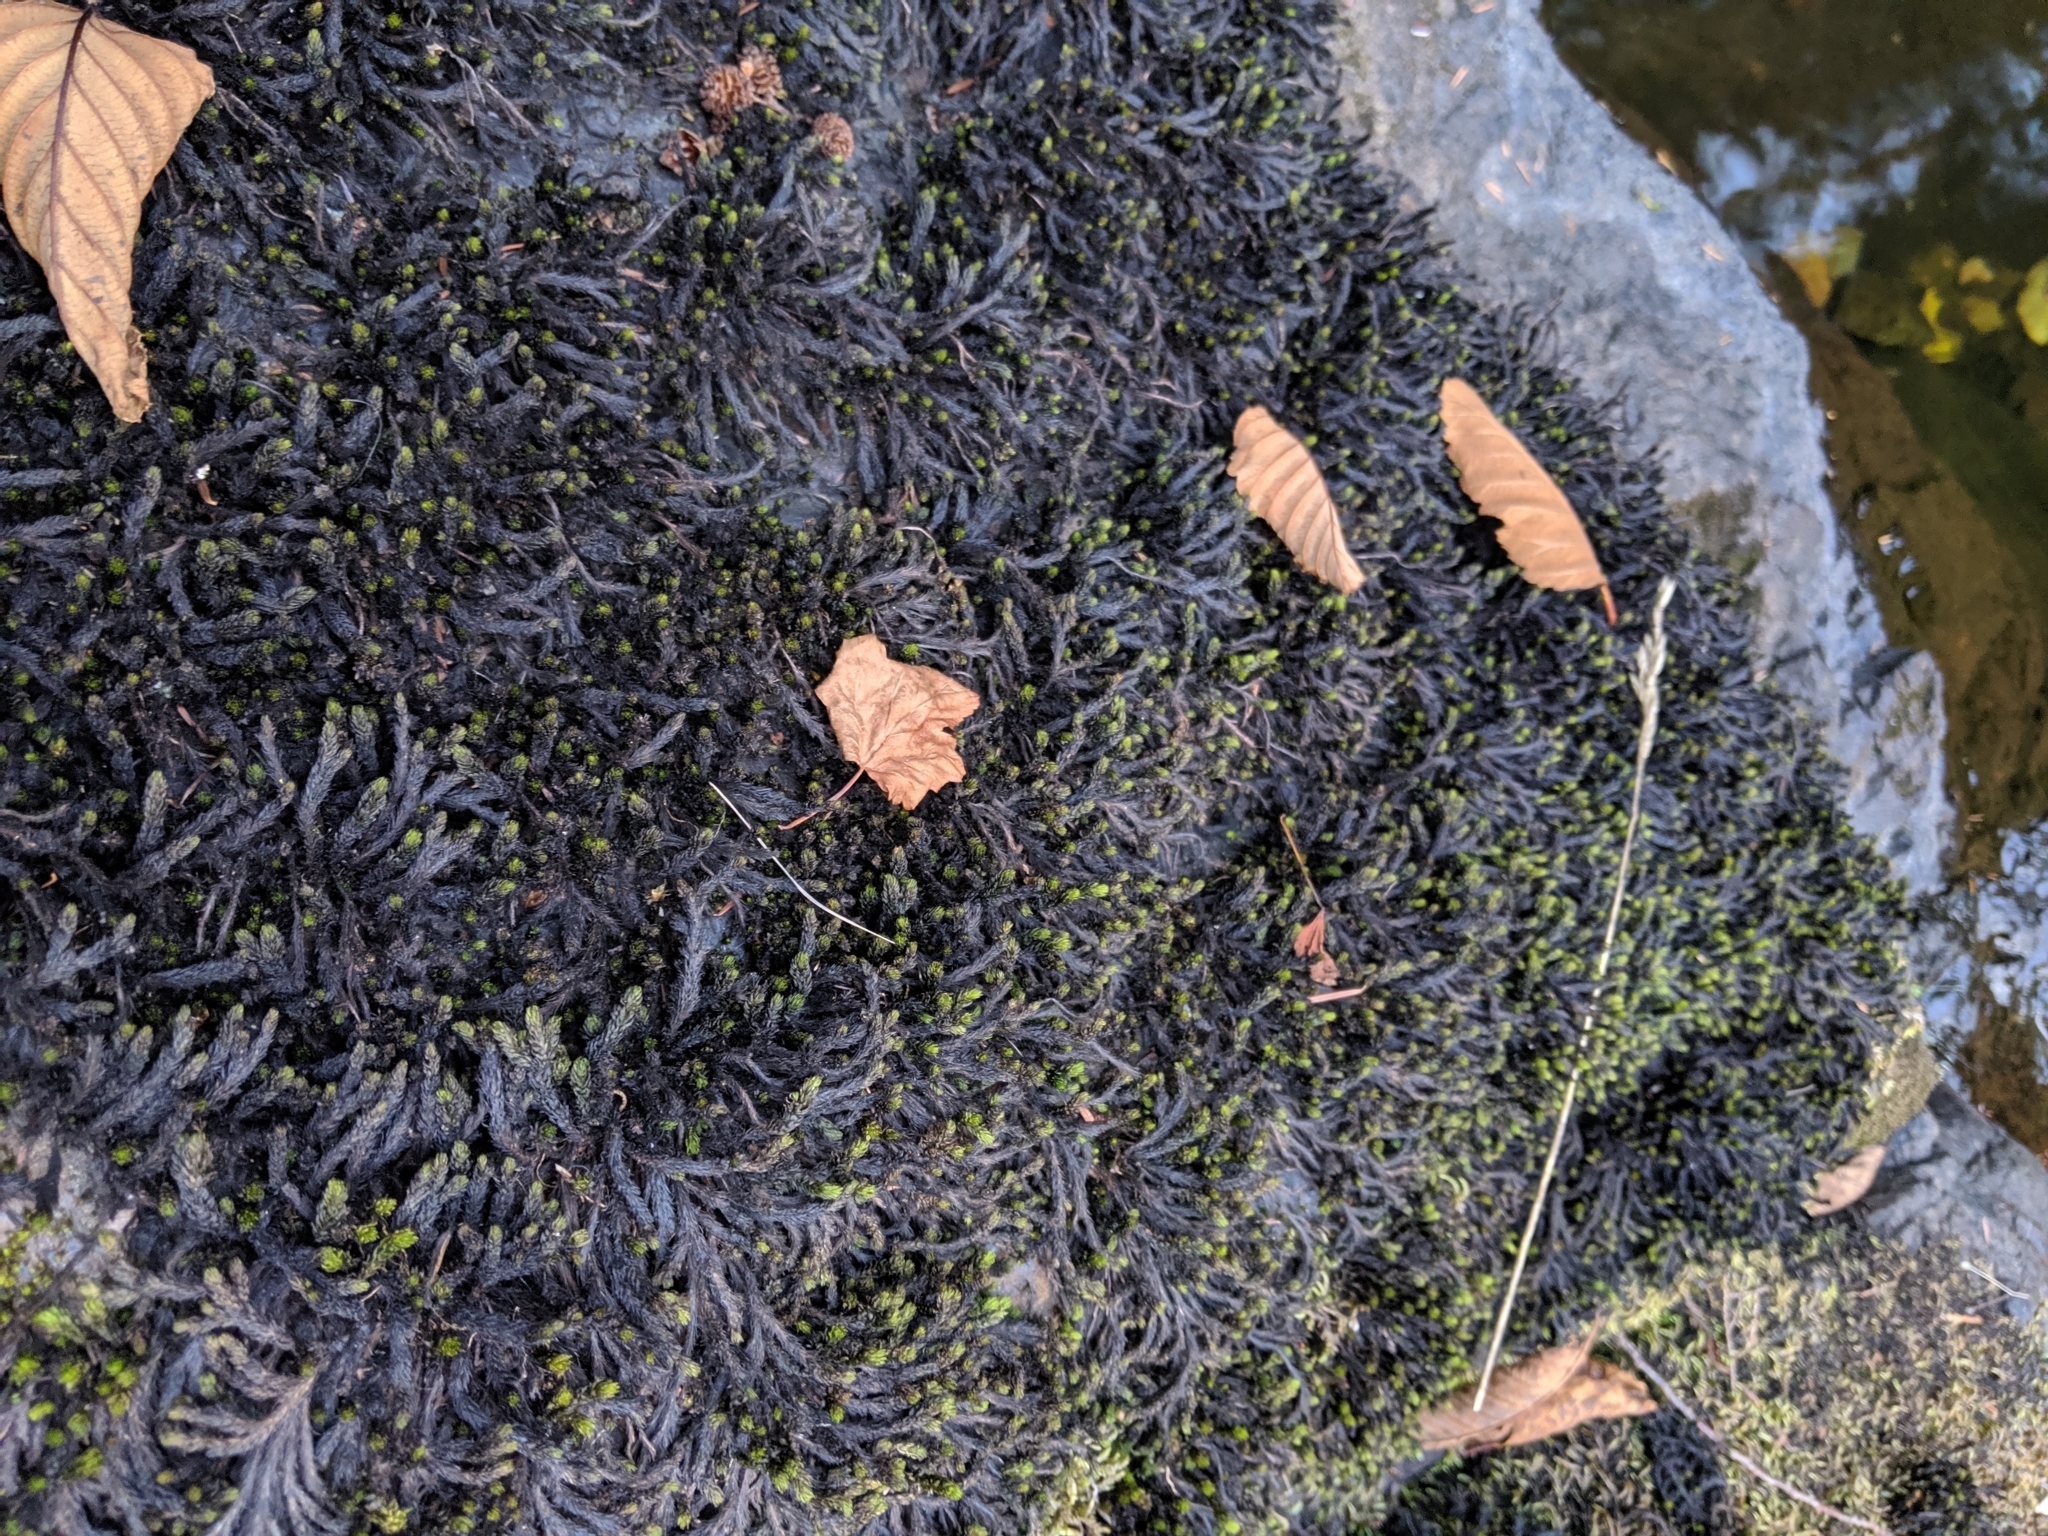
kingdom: Plantae
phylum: Bryophyta
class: Bryopsida
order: Scouleriales
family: Scouleriaceae
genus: Scouleria
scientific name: Scouleria aquatica
